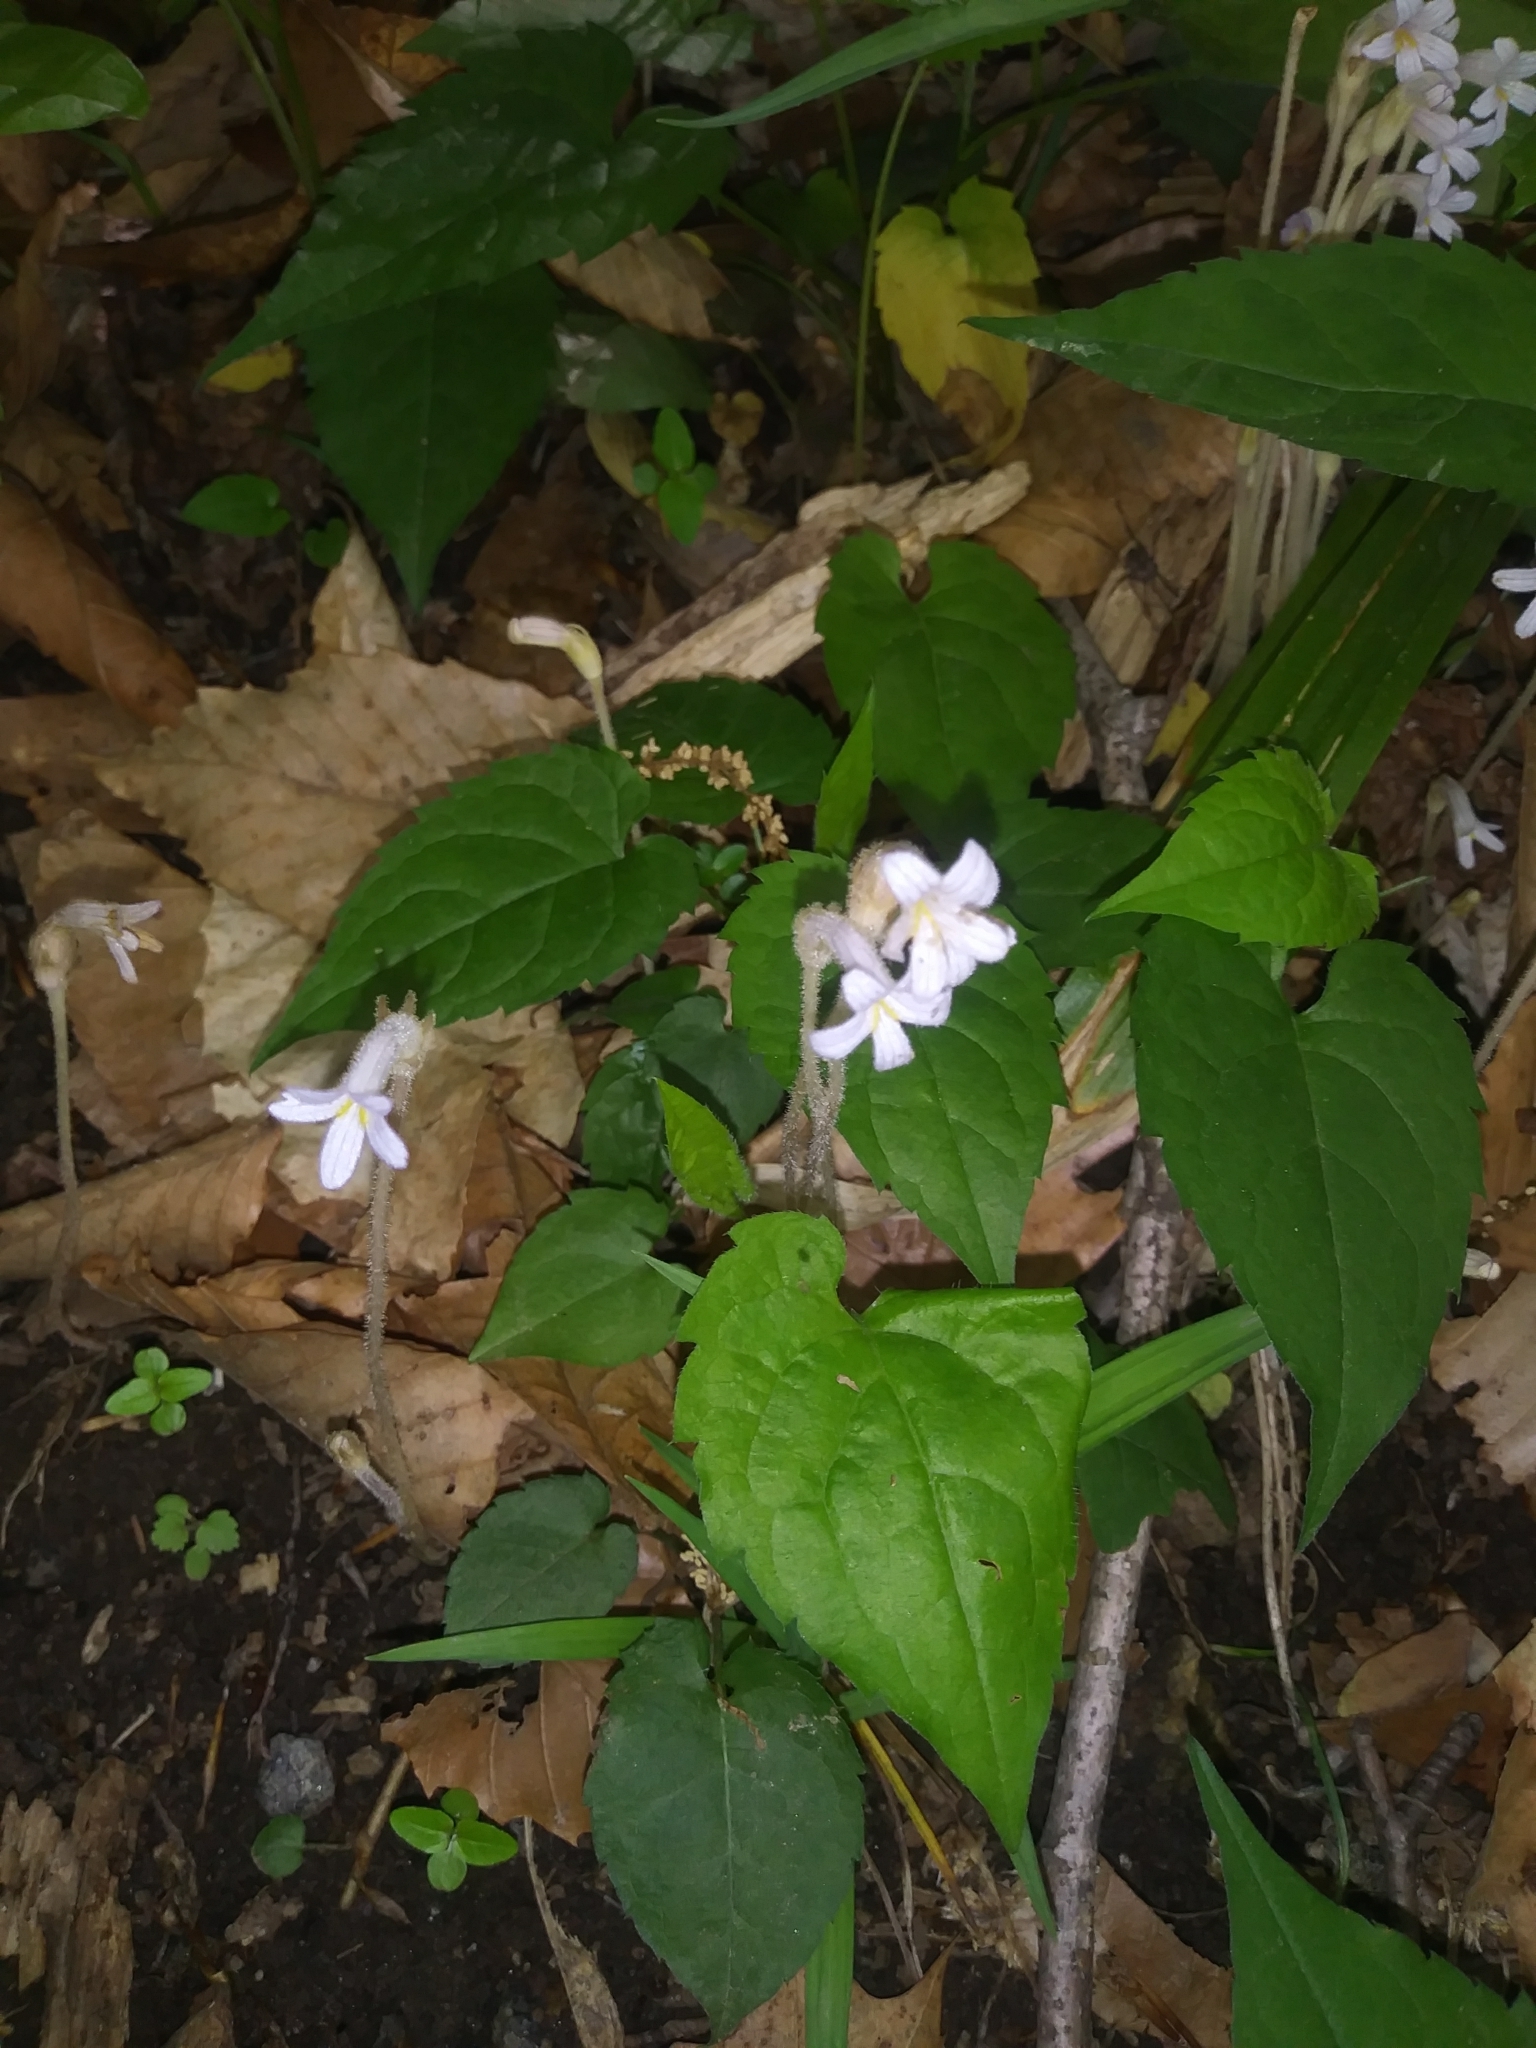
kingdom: Plantae
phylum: Tracheophyta
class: Magnoliopsida
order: Lamiales
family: Orobanchaceae
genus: Aphyllon
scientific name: Aphyllon uniflorum
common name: One-flowered broomrape
